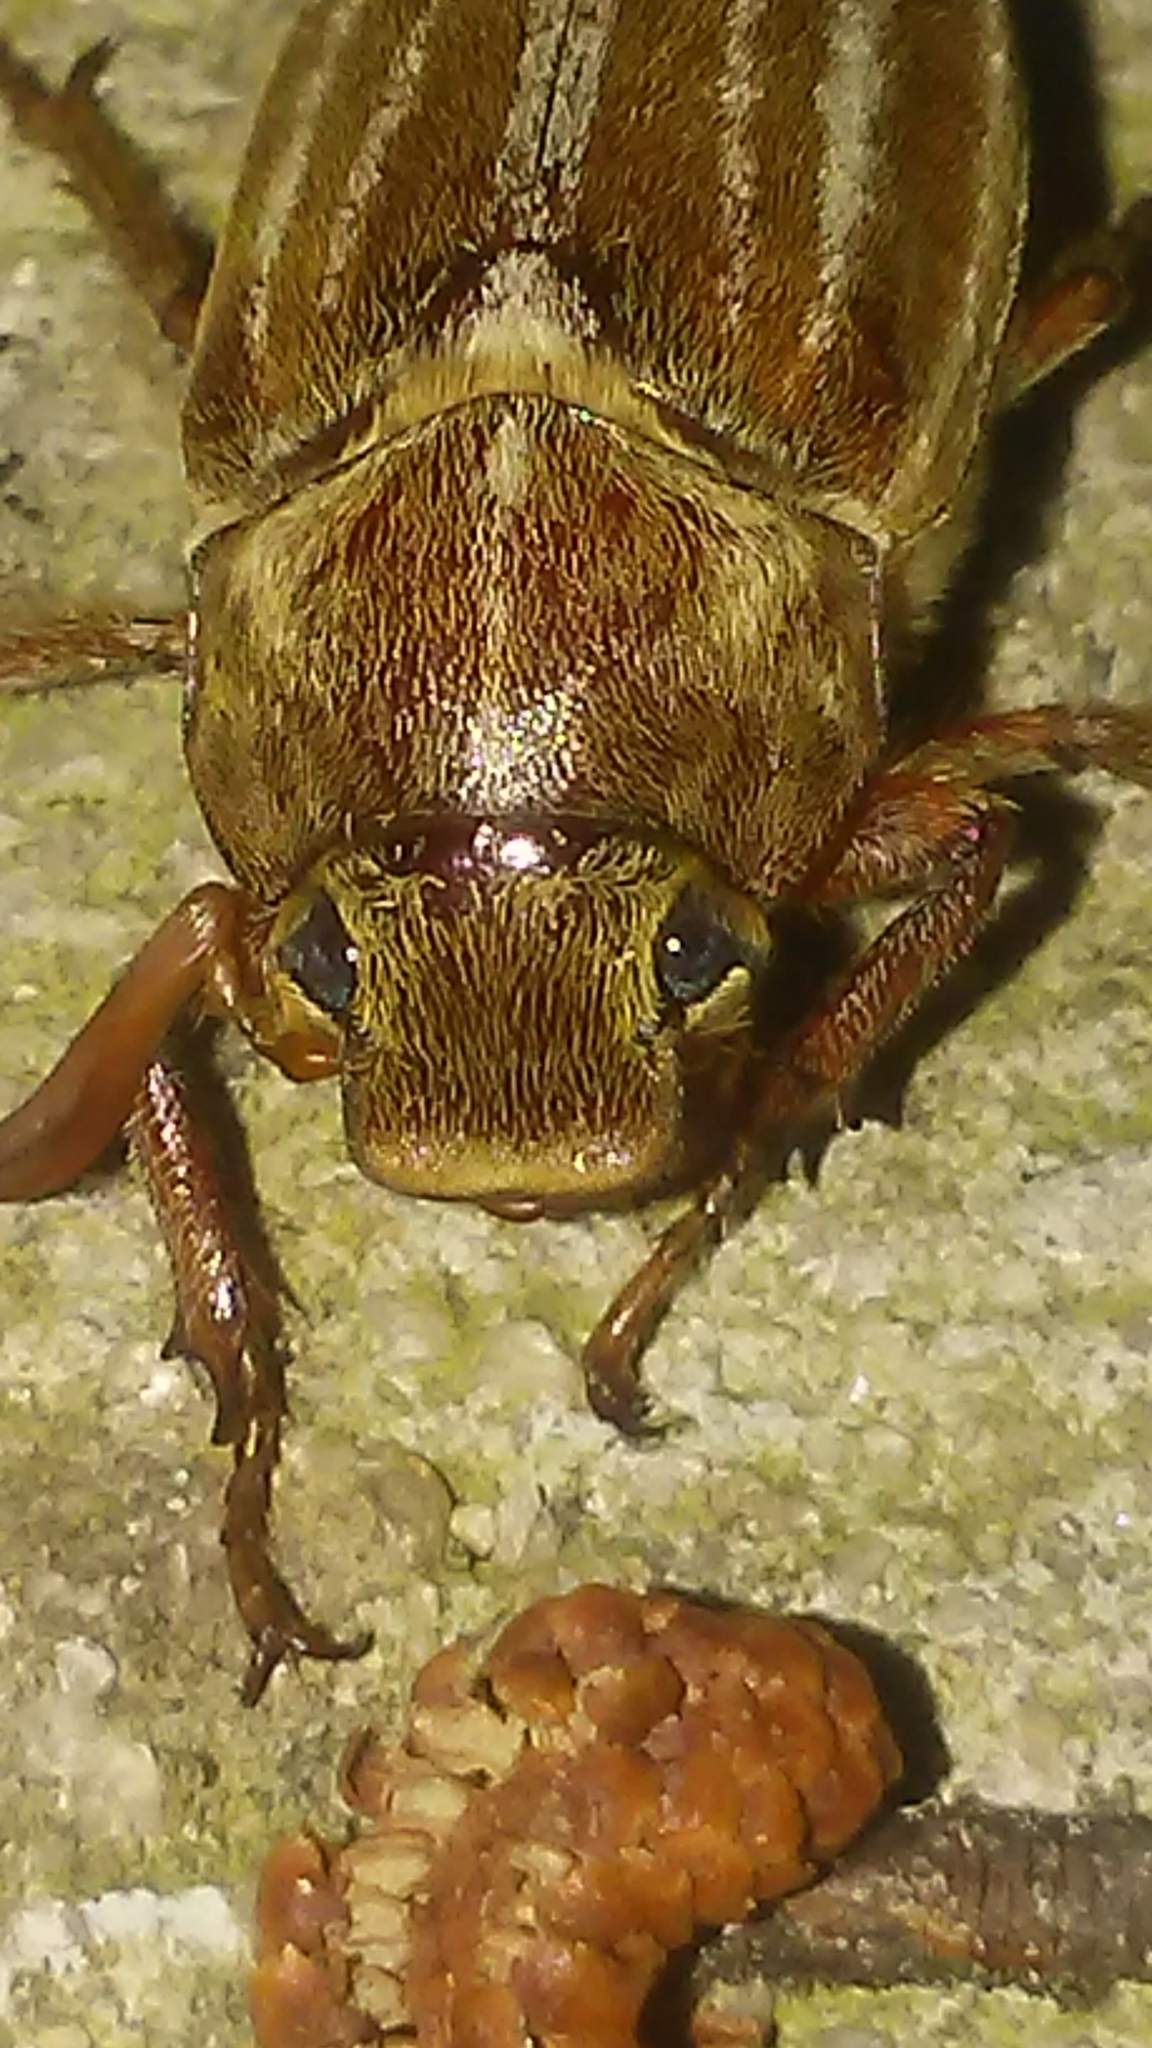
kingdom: Animalia
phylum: Arthropoda
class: Insecta
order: Coleoptera
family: Scarabaeidae
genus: Polyphylla
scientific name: Polyphylla occidentalis
